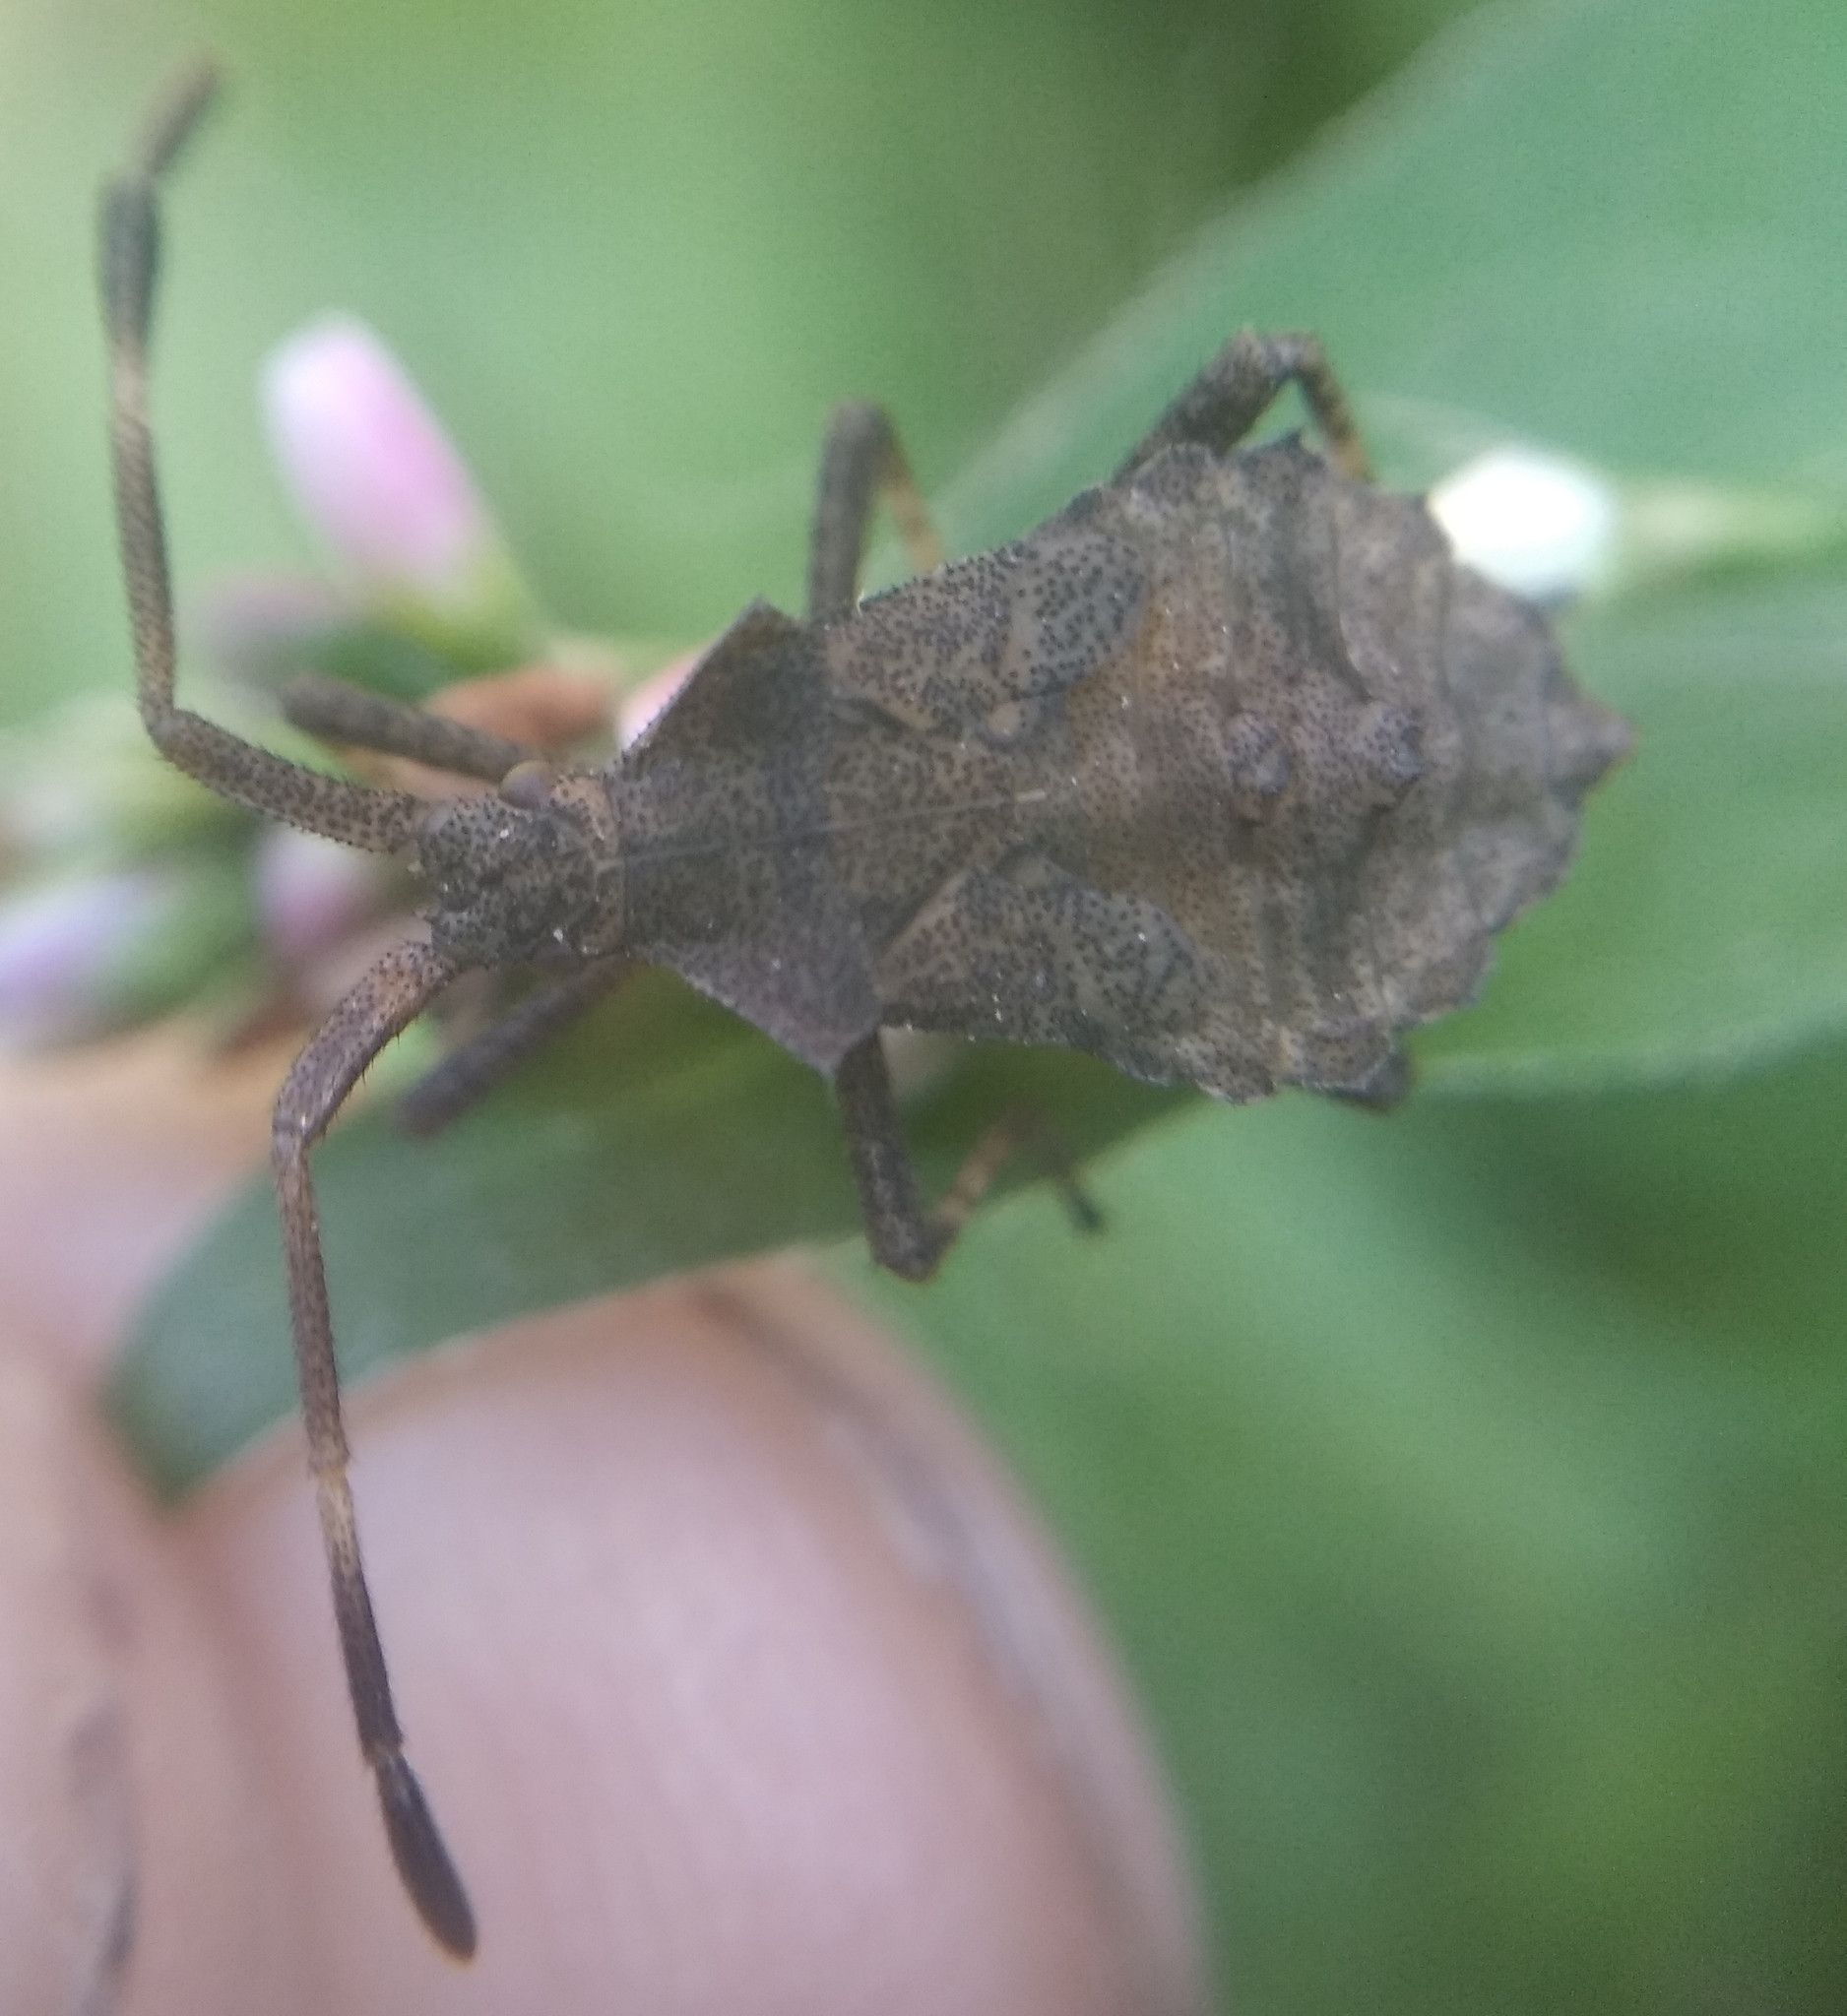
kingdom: Animalia
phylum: Arthropoda
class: Insecta
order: Hemiptera
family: Coreidae
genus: Coreus
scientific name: Coreus marginatus
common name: Dock bug
